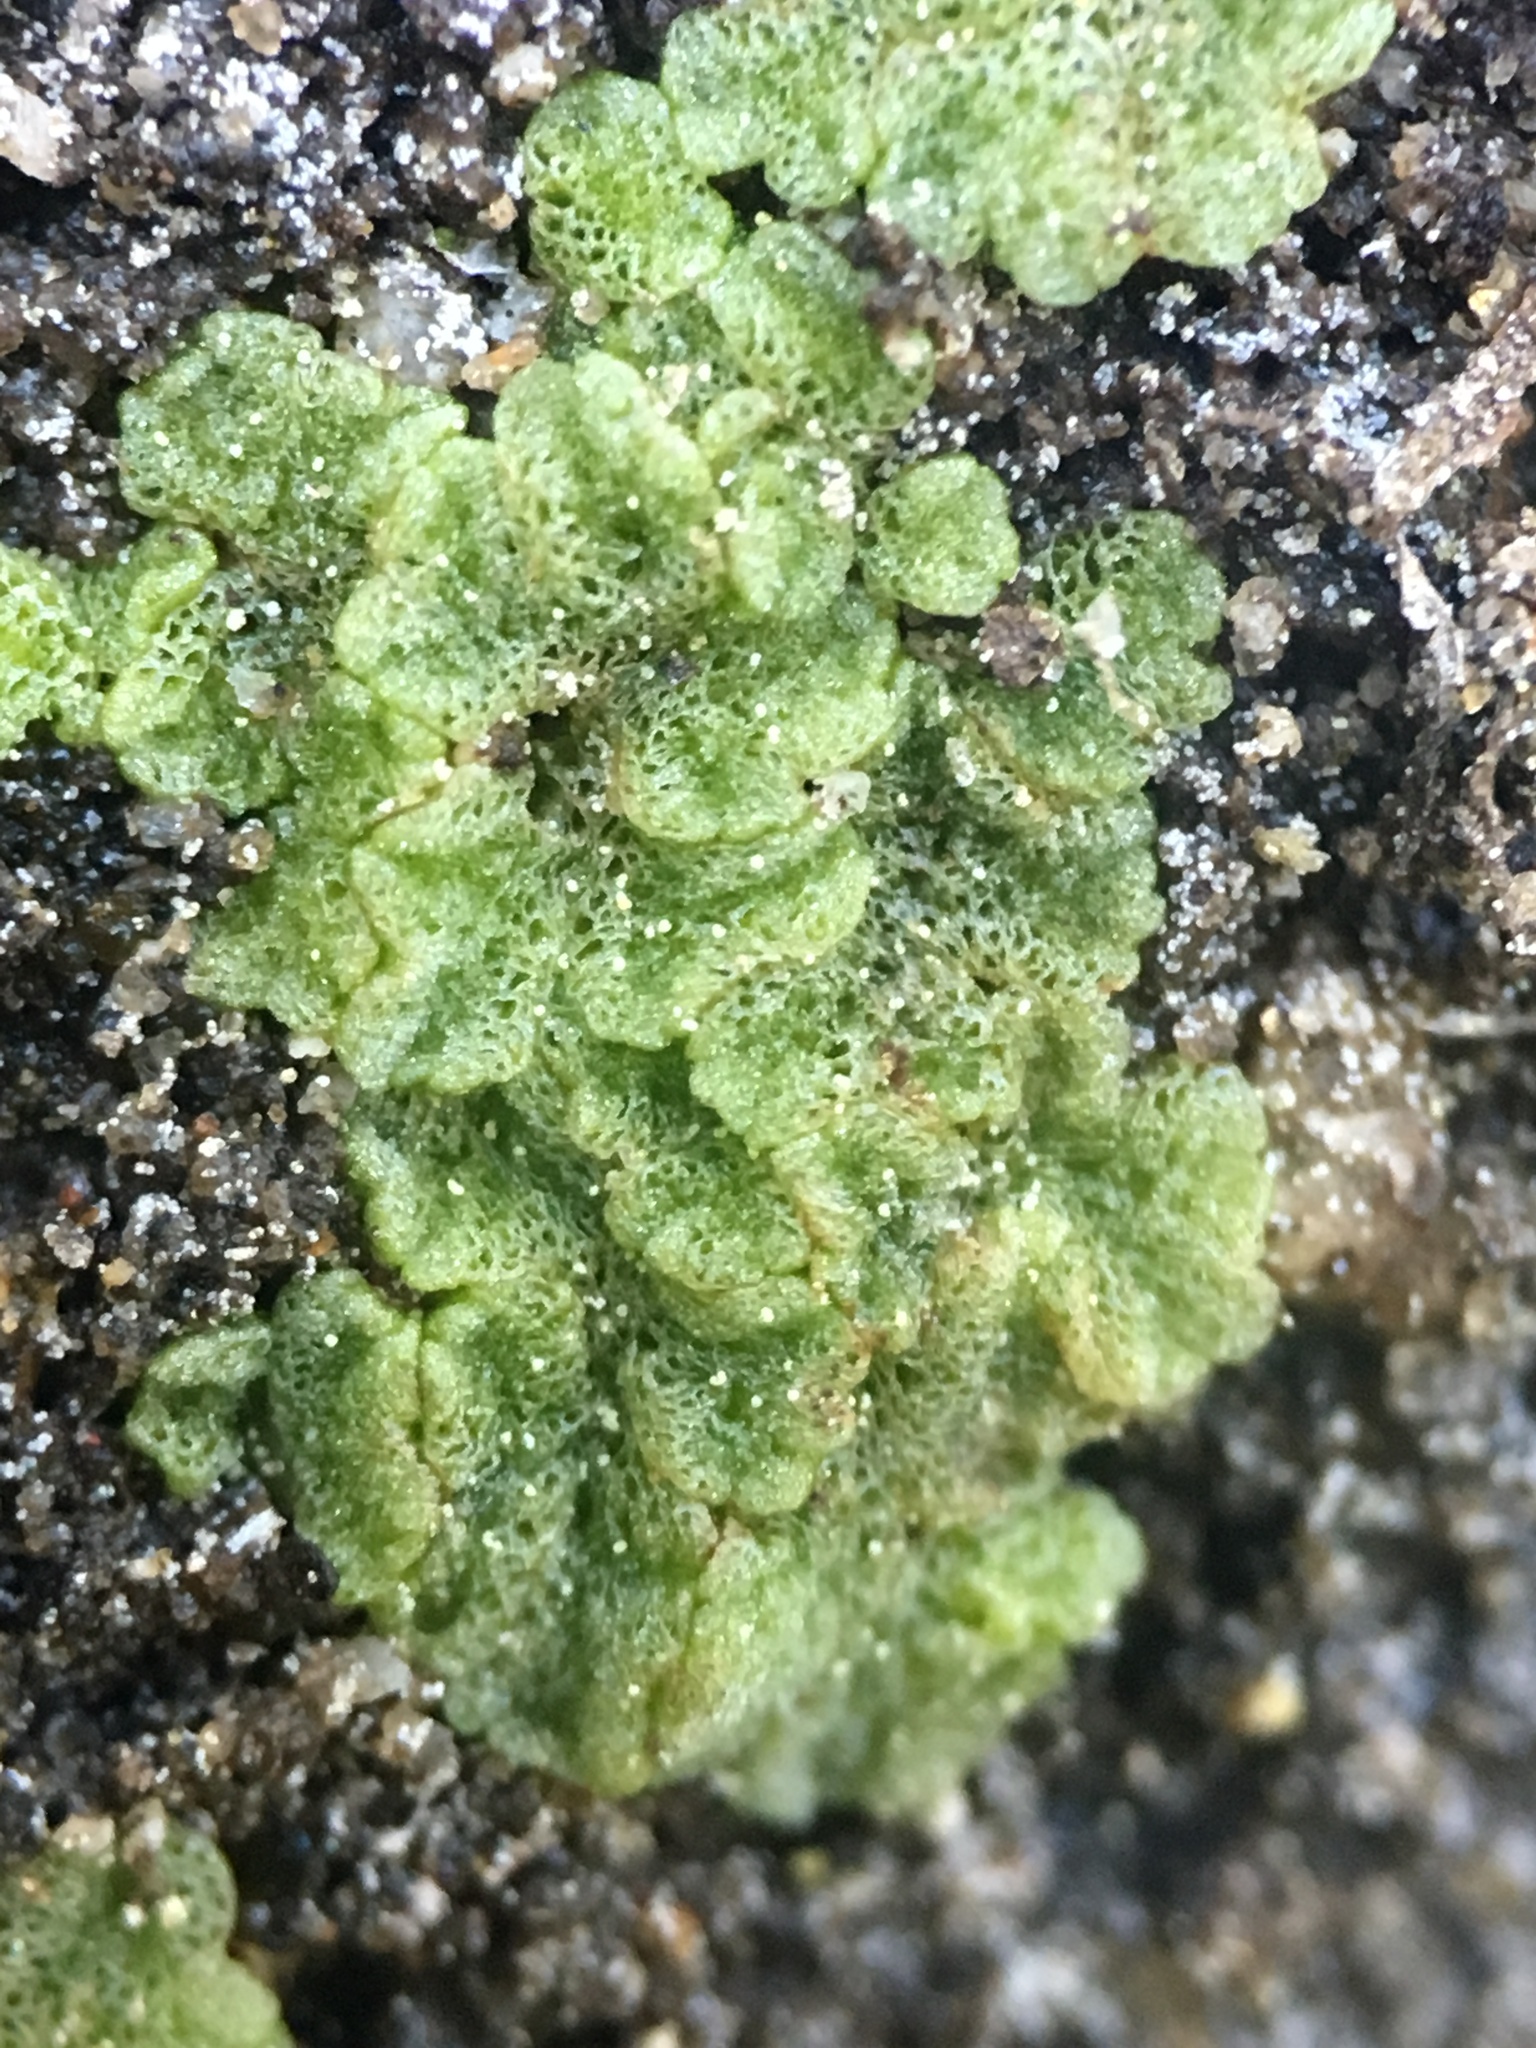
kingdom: Plantae
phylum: Marchantiophyta
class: Marchantiopsida
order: Marchantiales
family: Ricciaceae
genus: Riccia
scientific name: Riccia cavernosa
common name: Cavernous crystalwort
